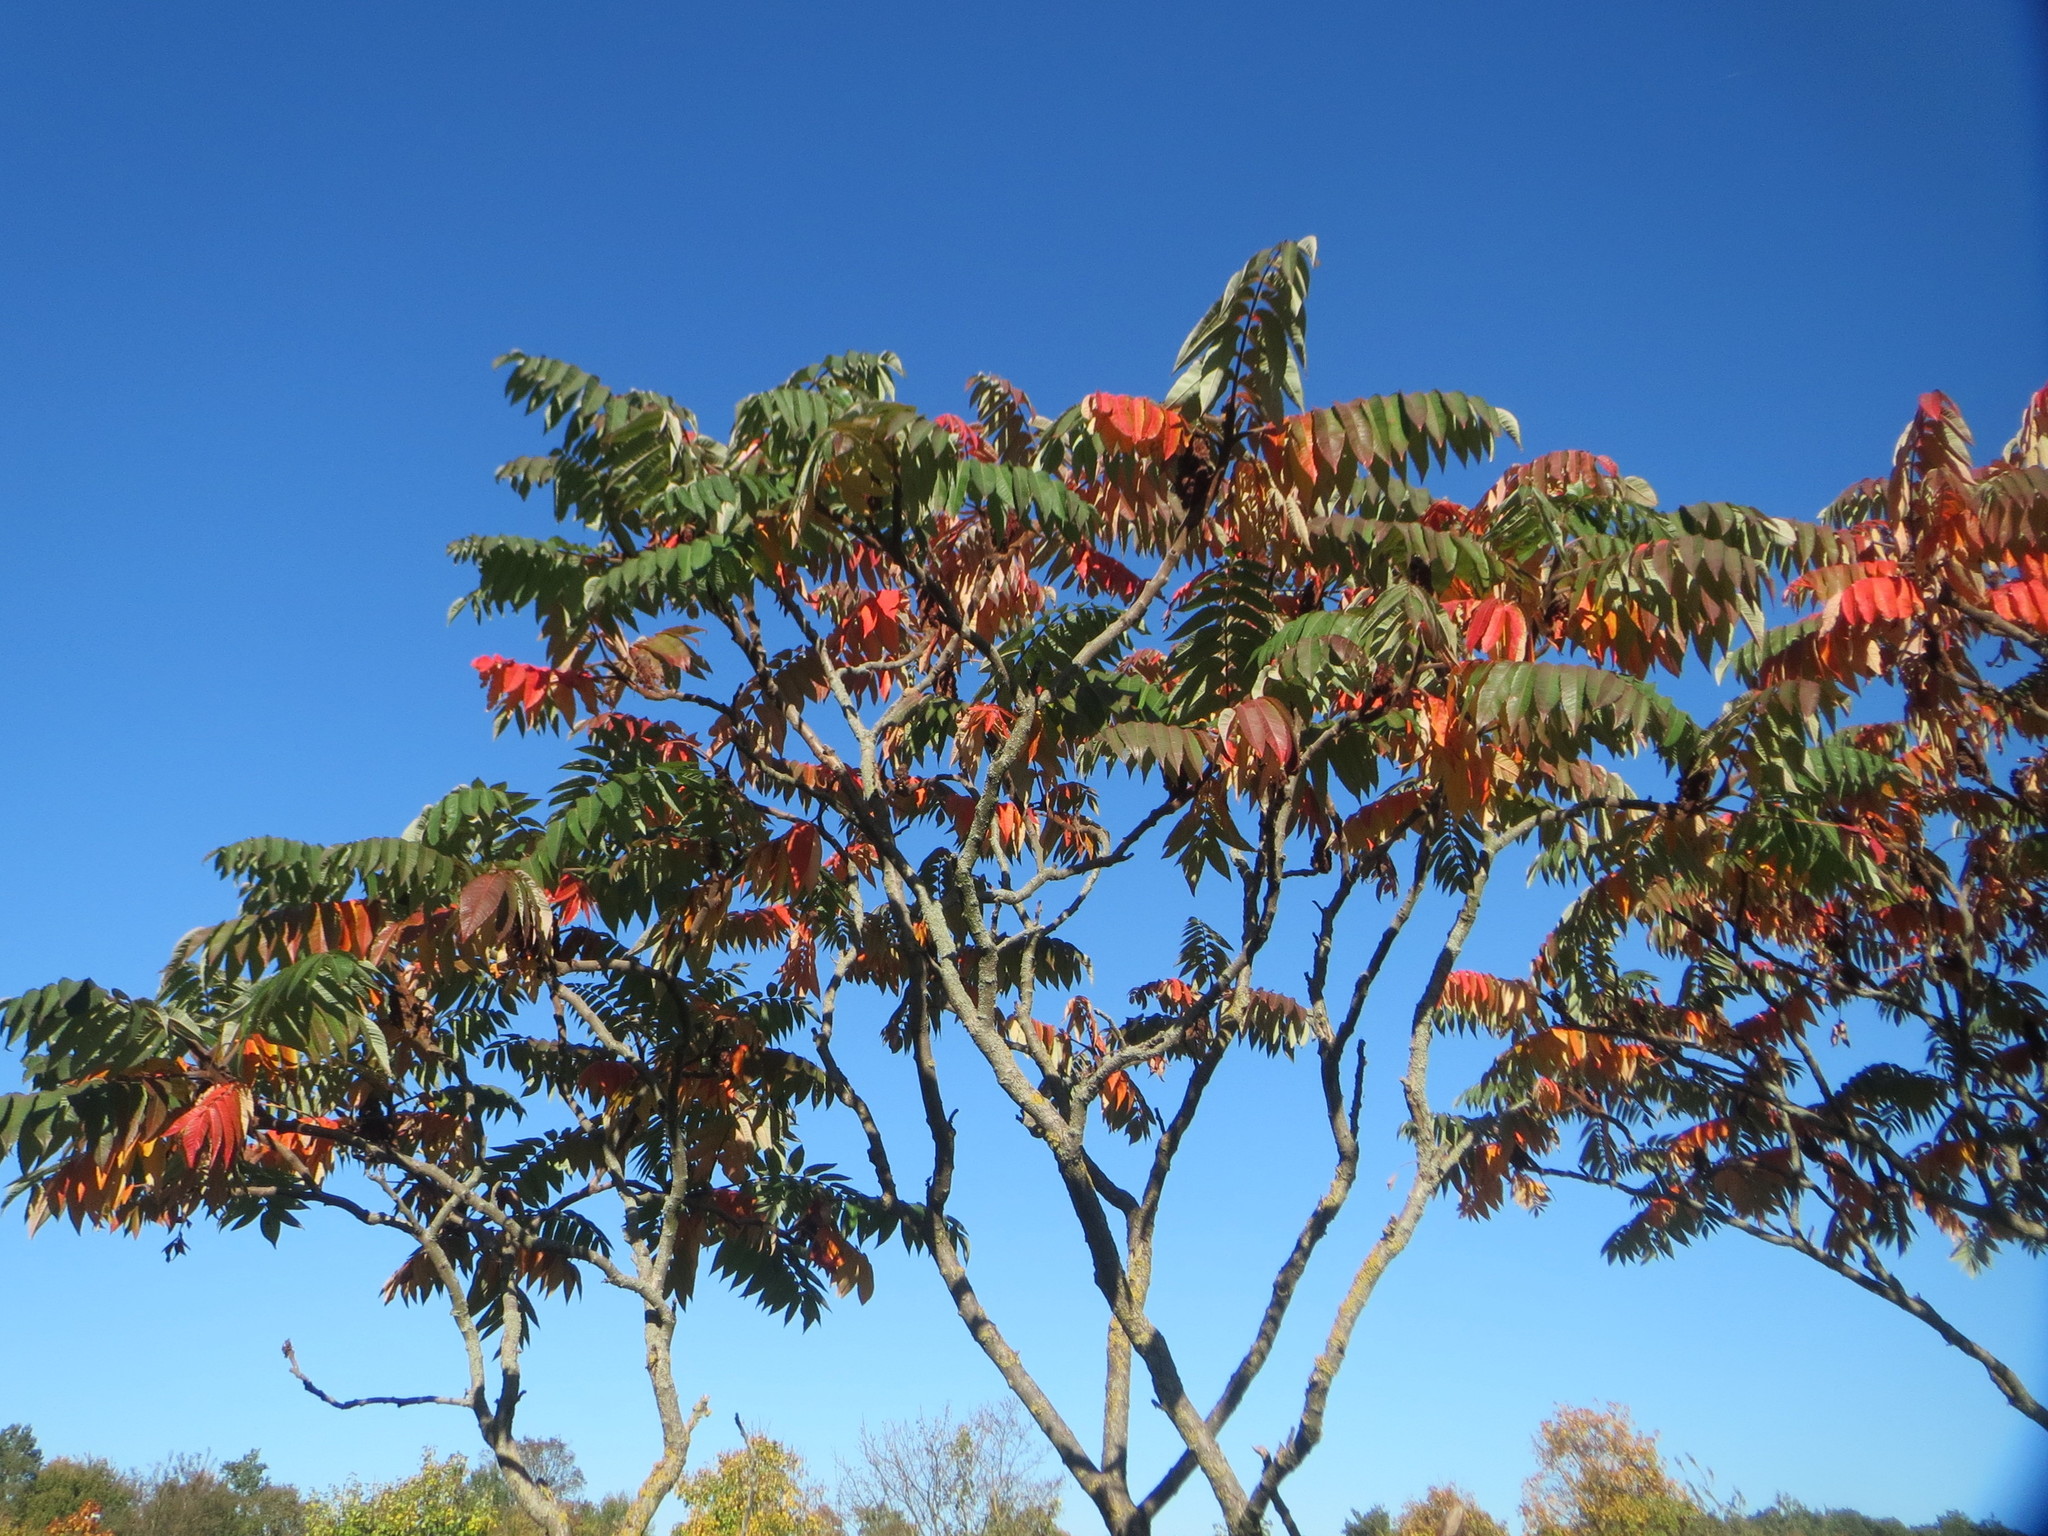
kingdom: Plantae
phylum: Tracheophyta
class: Magnoliopsida
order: Sapindales
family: Anacardiaceae
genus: Rhus
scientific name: Rhus typhina
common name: Staghorn sumac
